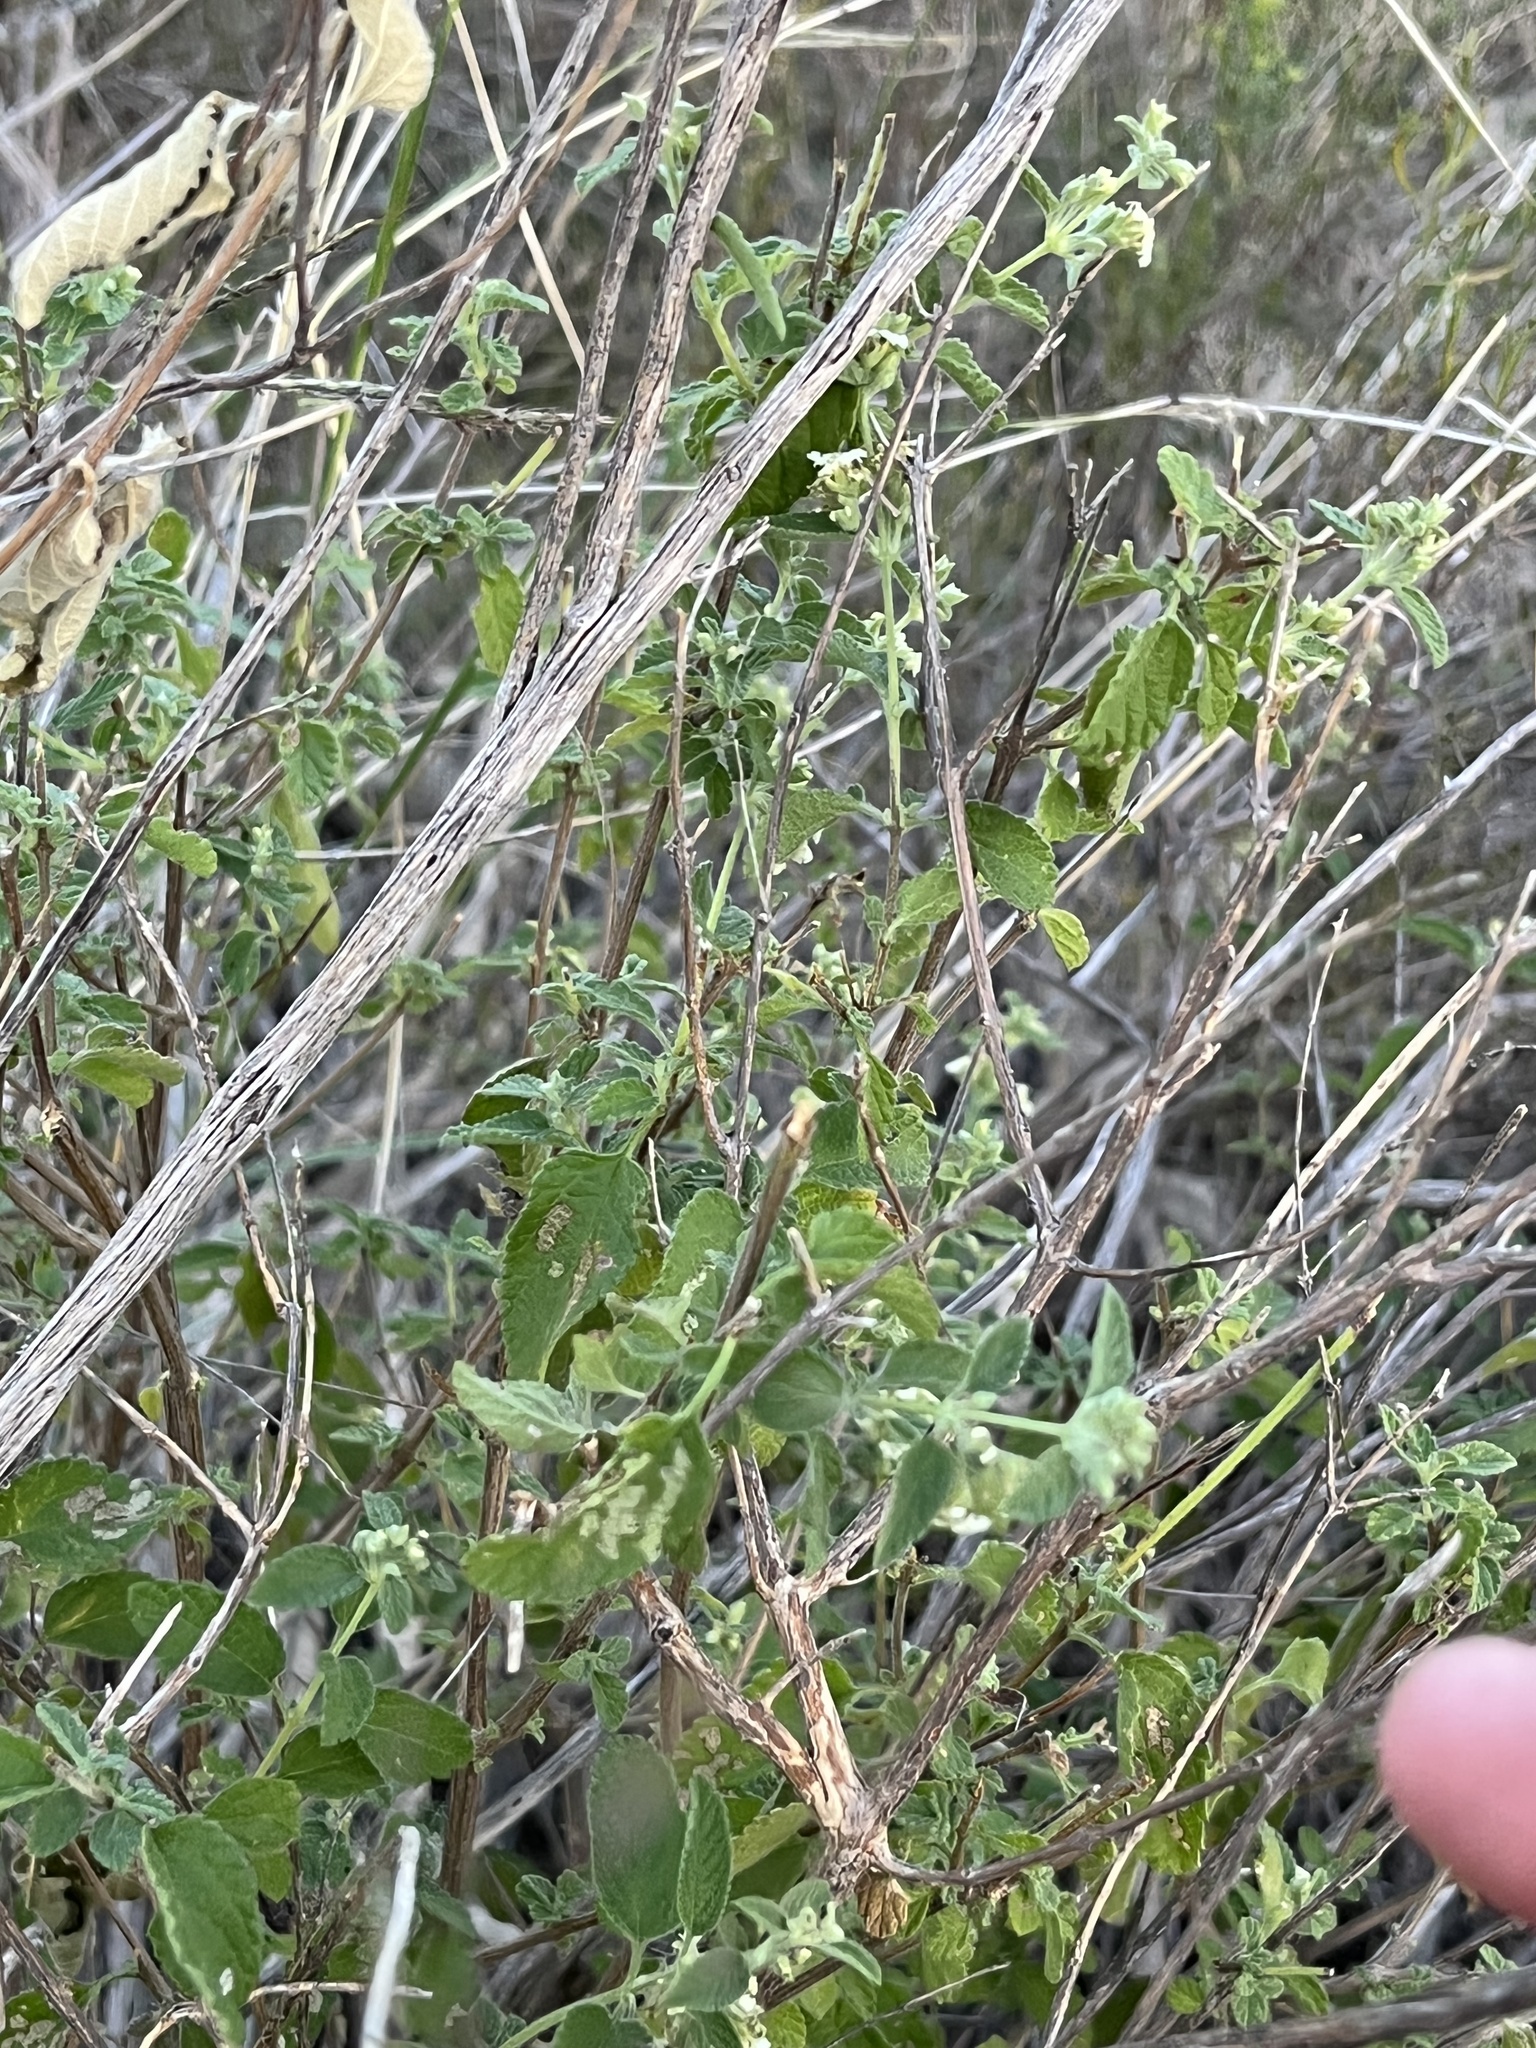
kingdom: Plantae
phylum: Tracheophyta
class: Magnoliopsida
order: Lamiales
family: Verbenaceae
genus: Lippia
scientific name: Lippia origanoides
